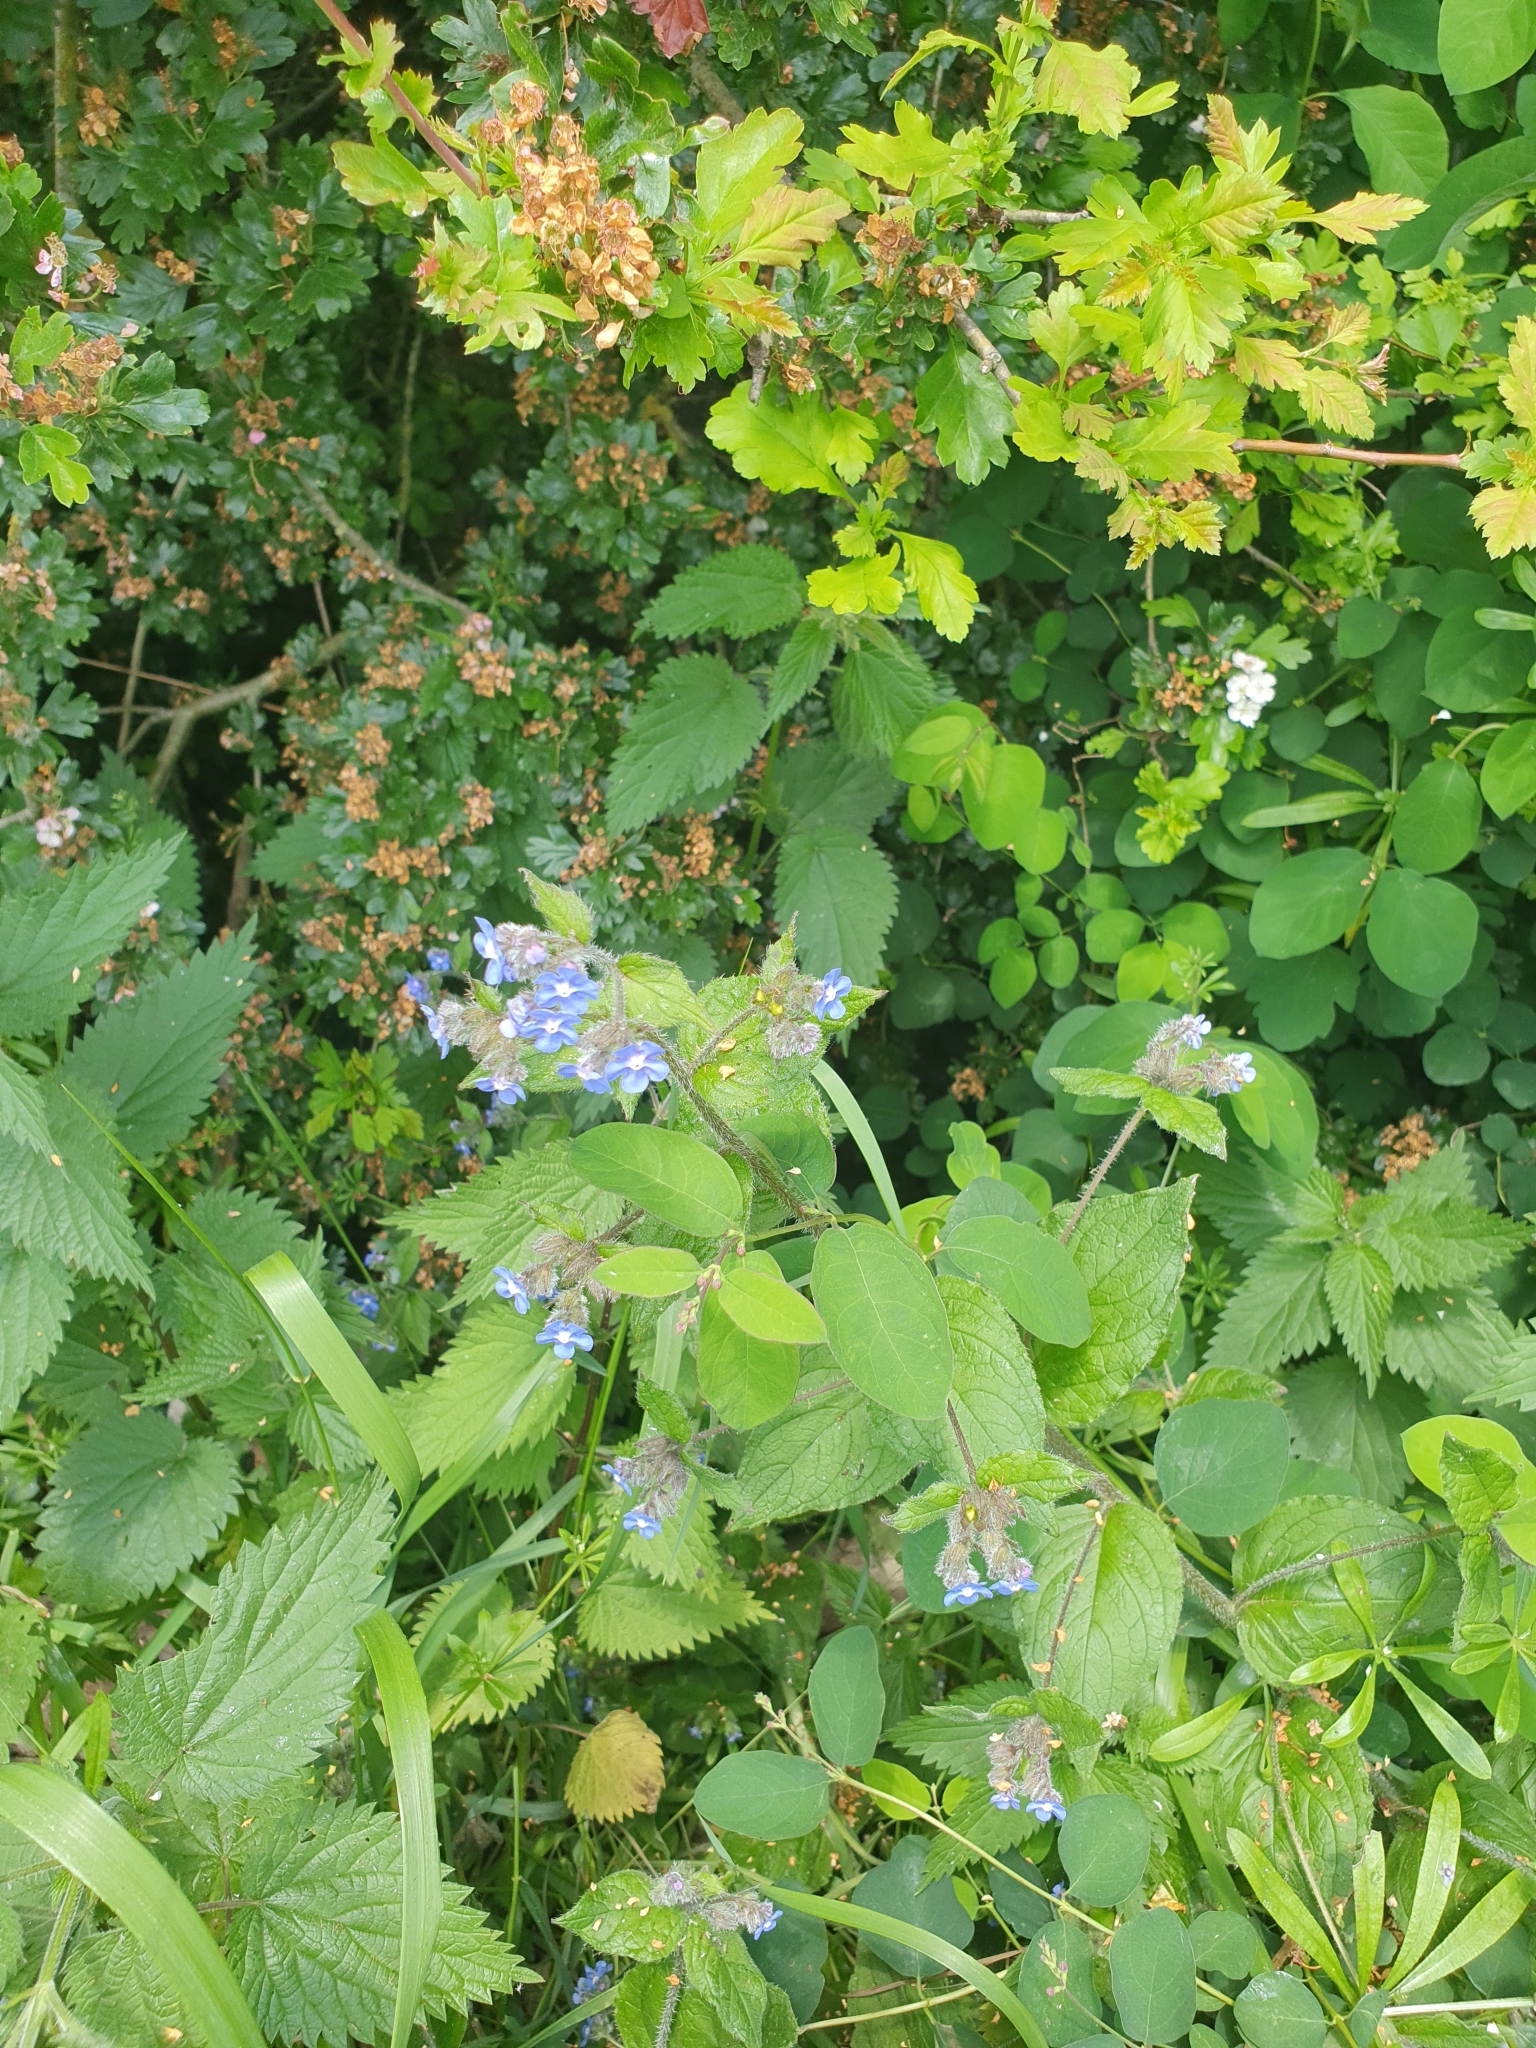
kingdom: Plantae
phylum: Tracheophyta
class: Magnoliopsida
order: Boraginales
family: Boraginaceae
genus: Pentaglottis
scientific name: Pentaglottis sempervirens
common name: Green alkanet
